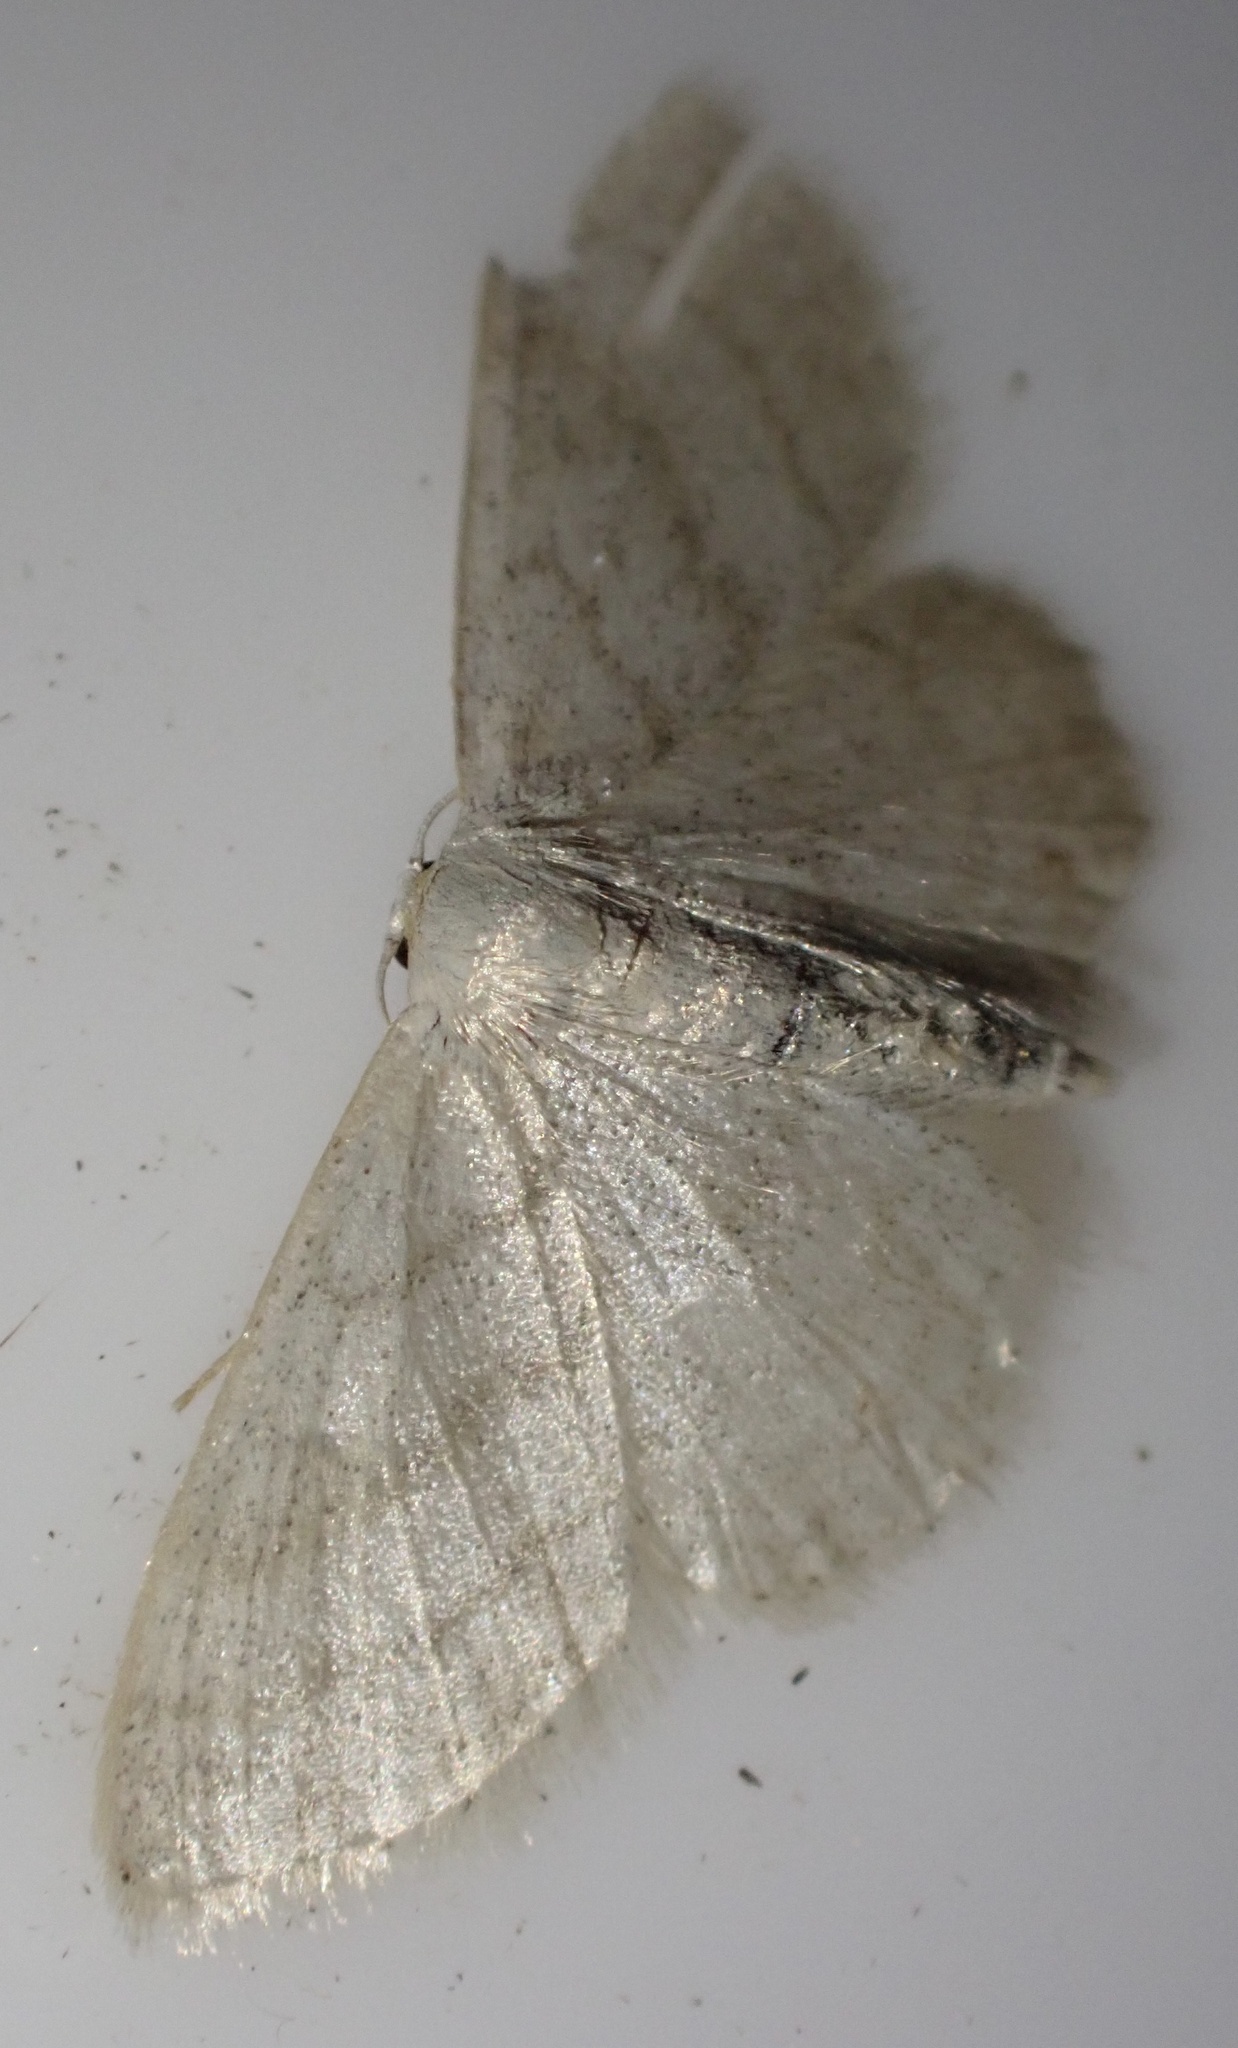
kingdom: Animalia
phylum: Arthropoda
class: Insecta
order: Lepidoptera
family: Geometridae
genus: Idaea
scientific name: Idaea subsericeata
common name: Satin wave
